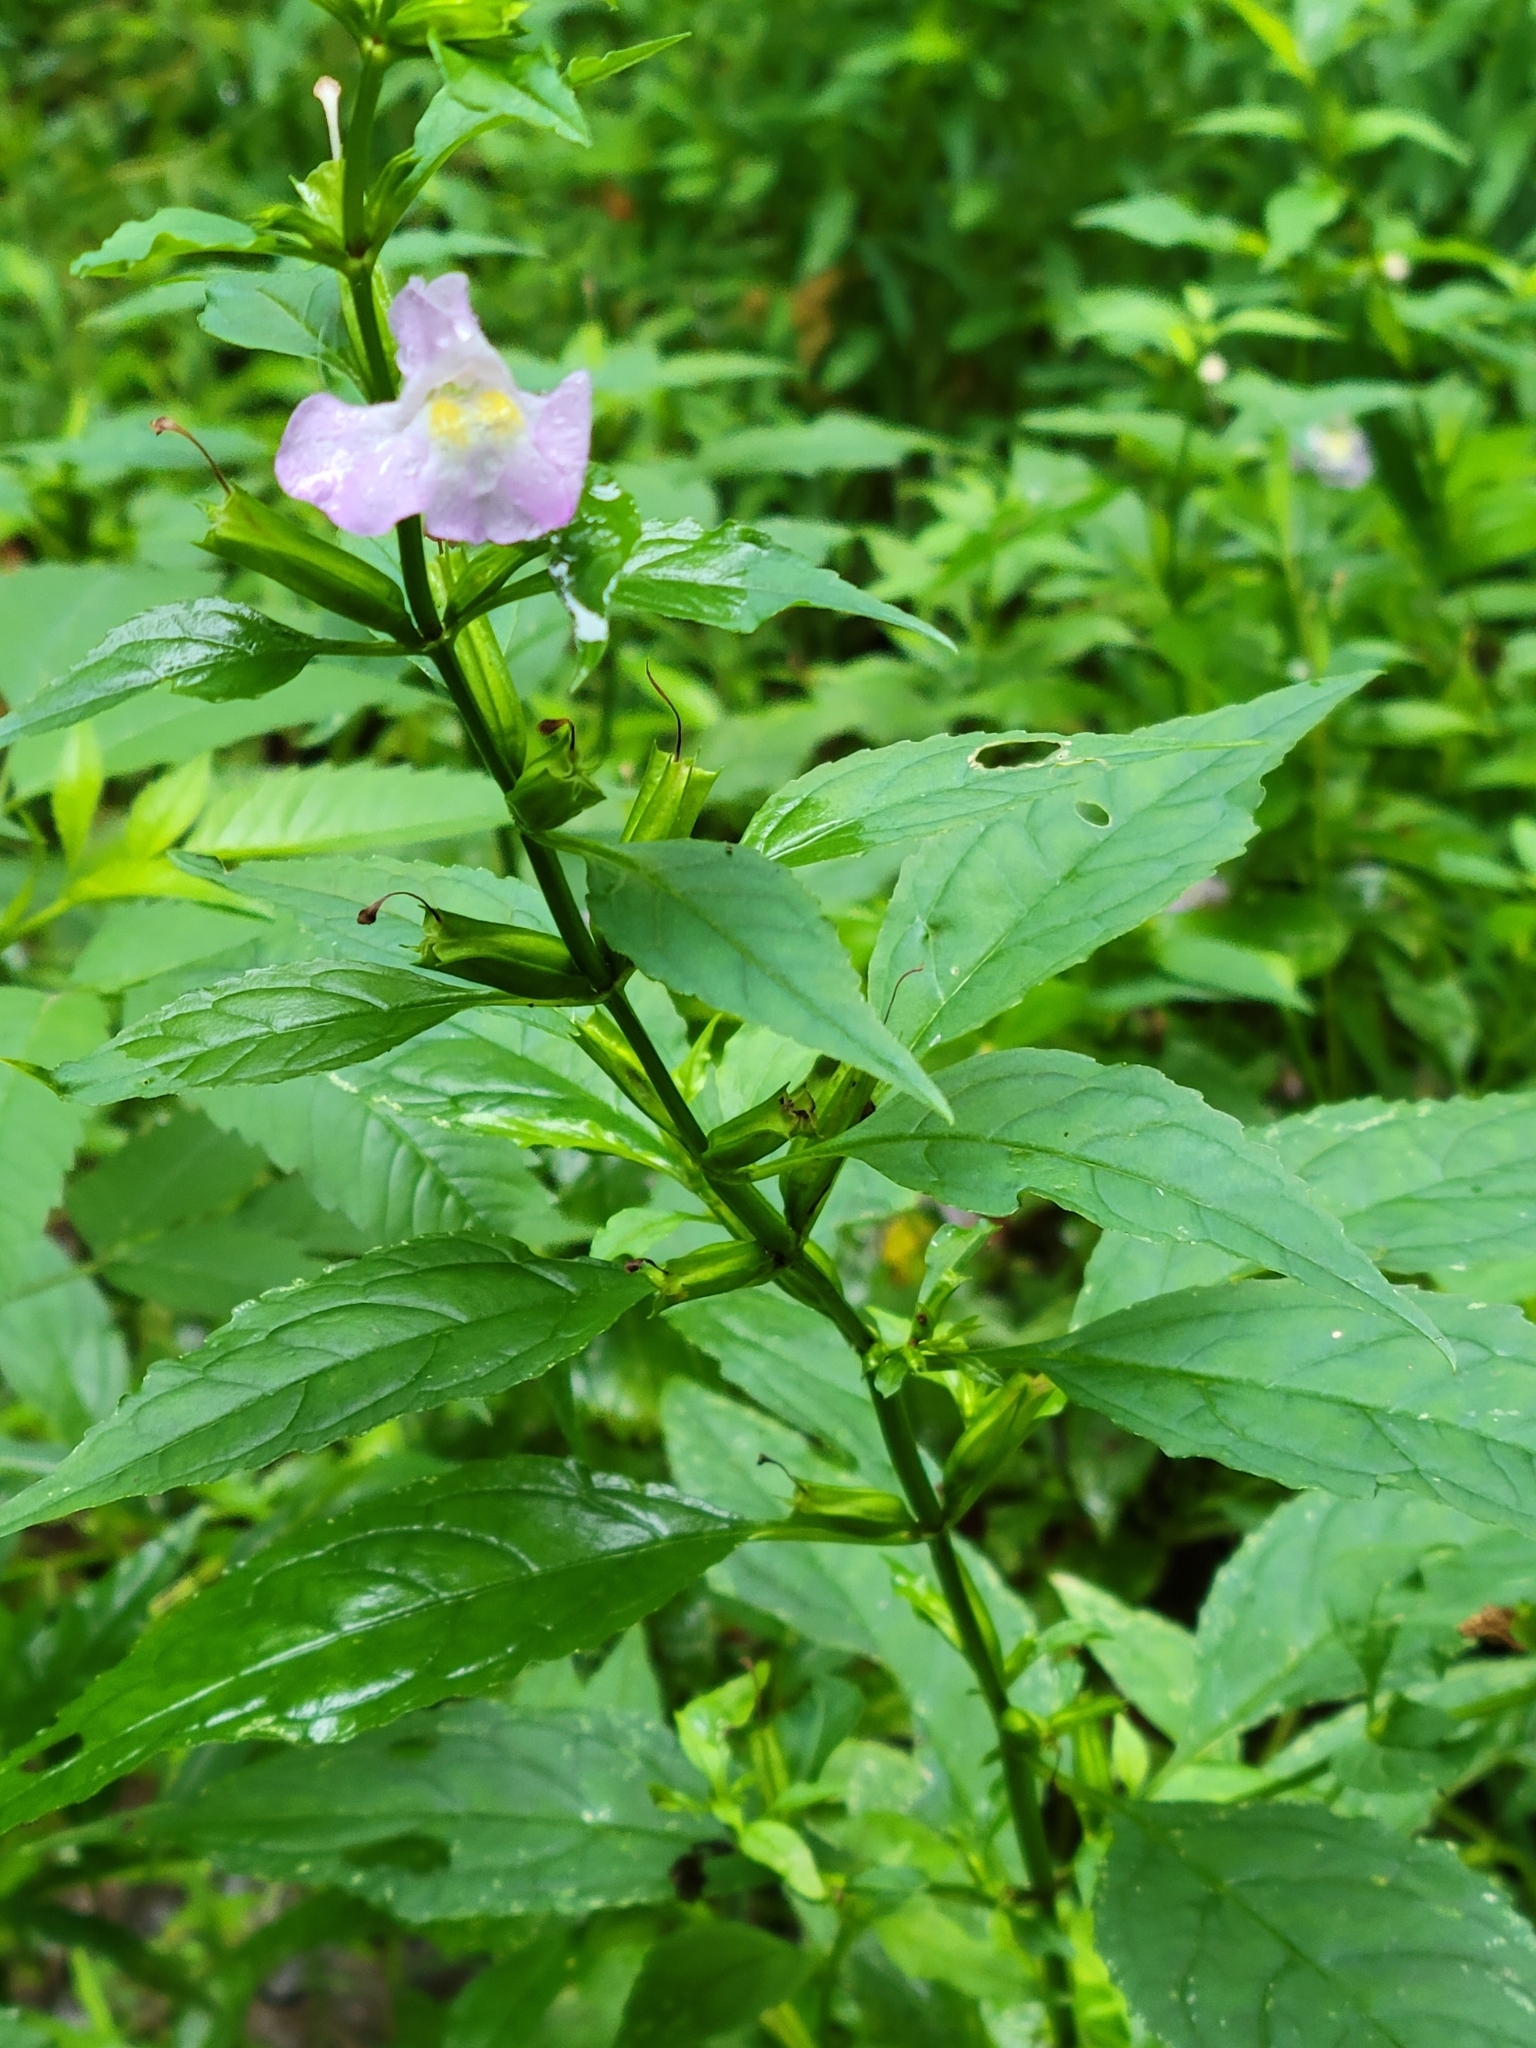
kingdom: Plantae
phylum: Tracheophyta
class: Magnoliopsida
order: Lamiales
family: Phrymaceae
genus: Mimulus
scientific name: Mimulus alatus
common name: Sharp-wing monkey-flower
